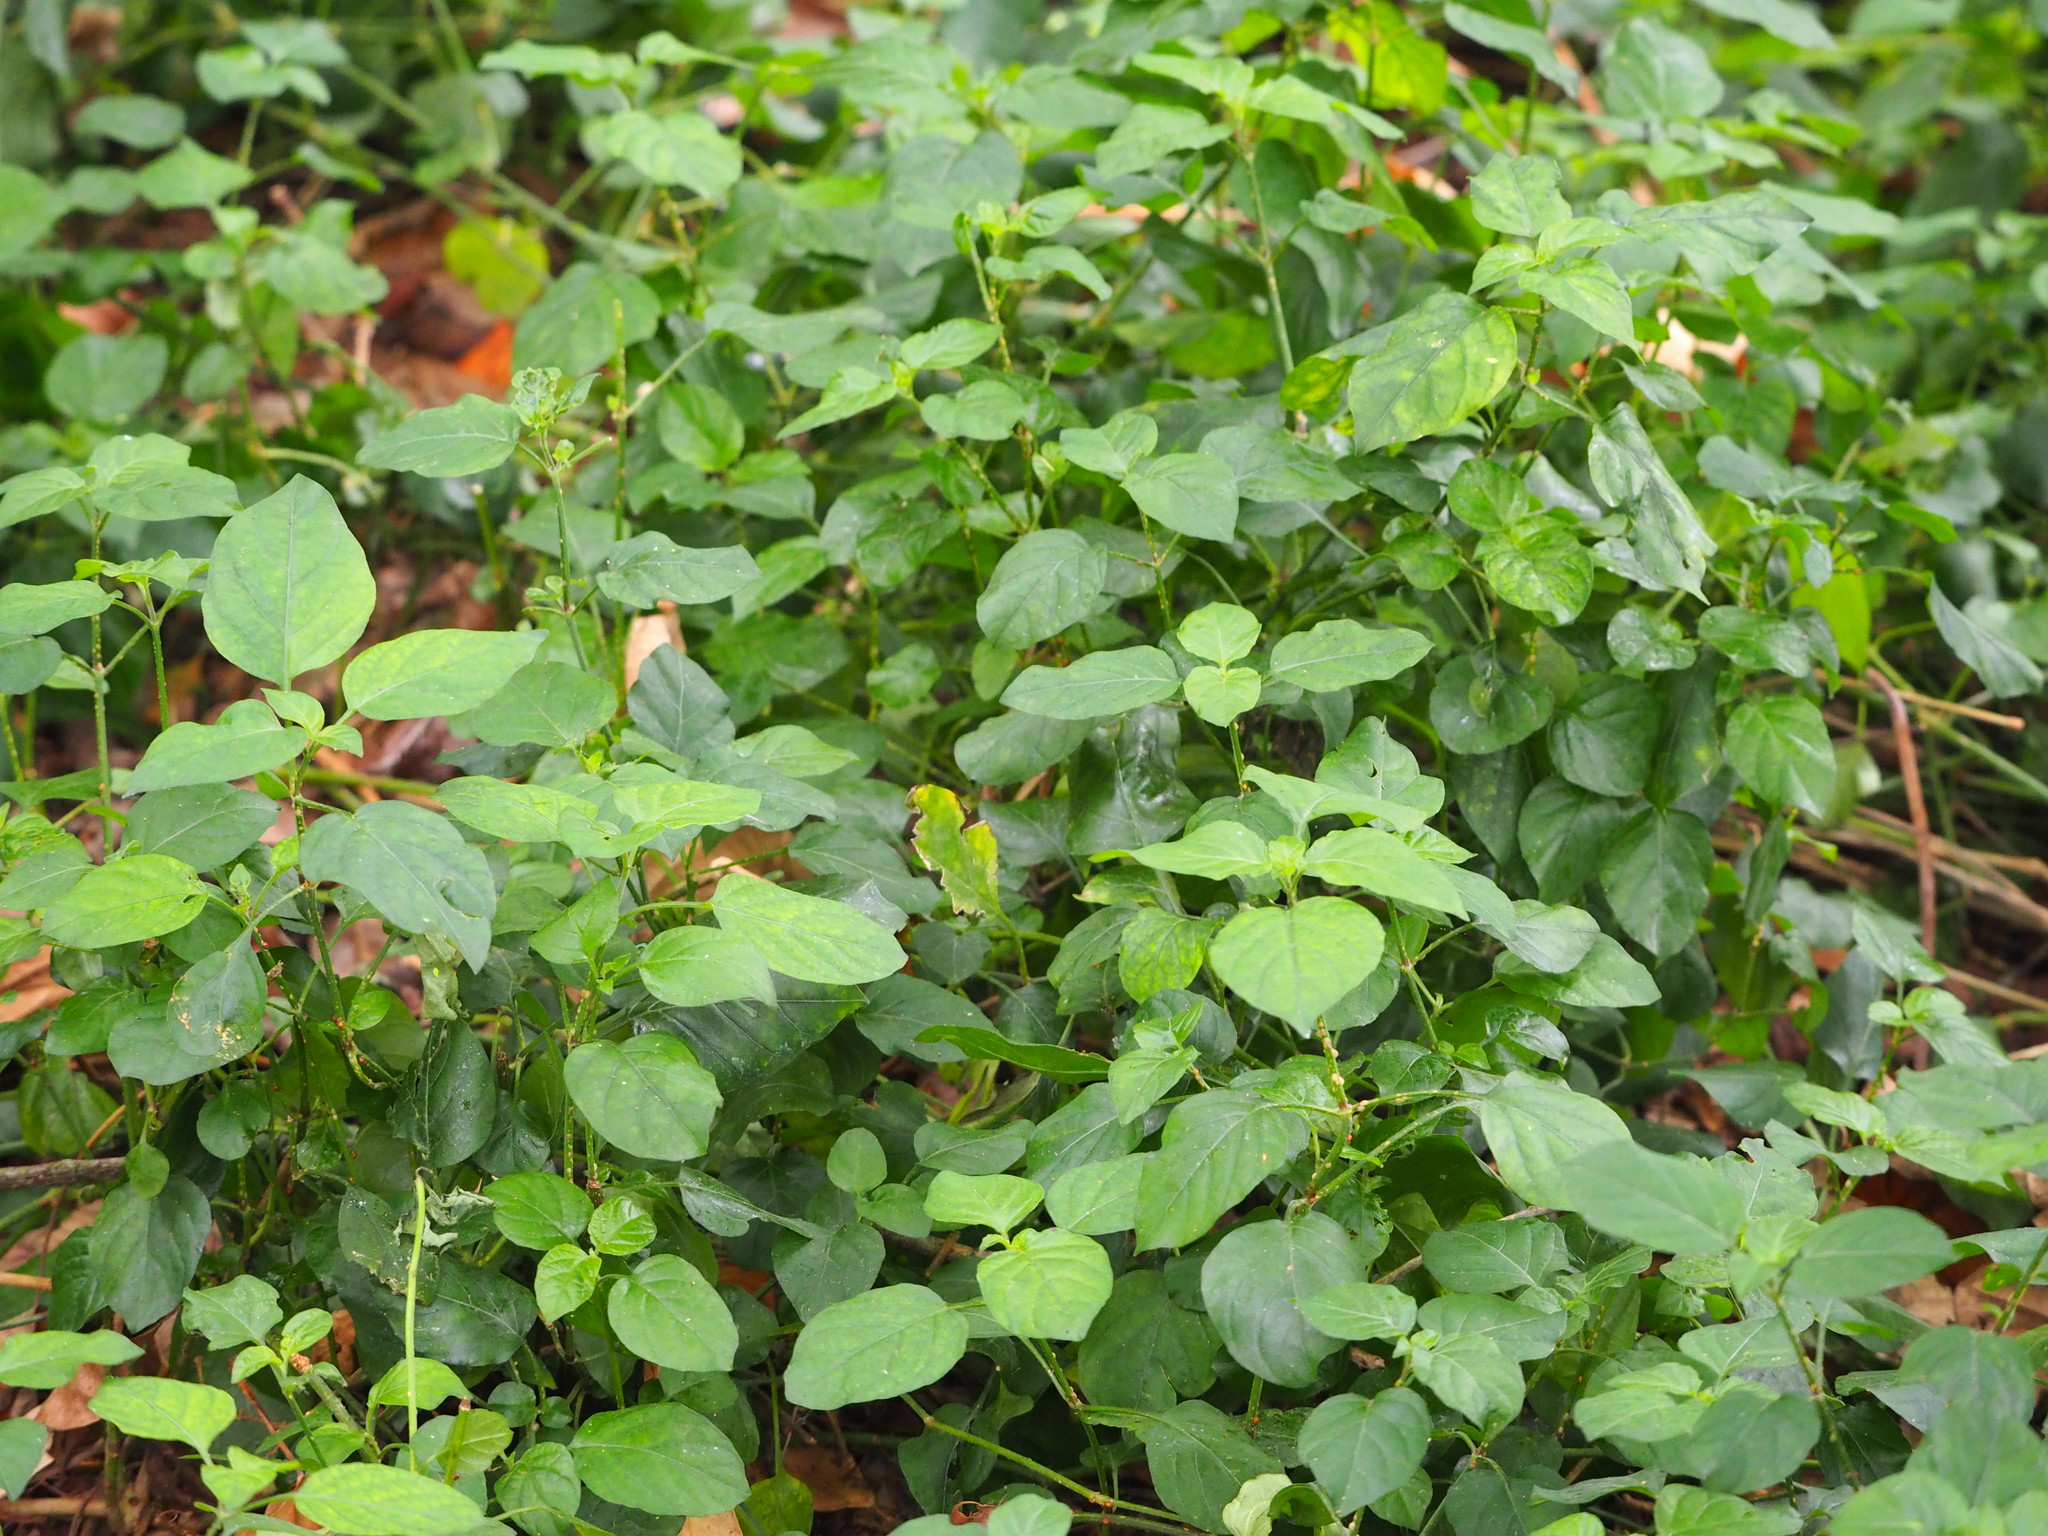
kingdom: Plantae
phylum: Tracheophyta
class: Magnoliopsida
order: Lamiales
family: Acanthaceae
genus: Asystasia
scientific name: Asystasia gangetica
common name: Chinese violet
